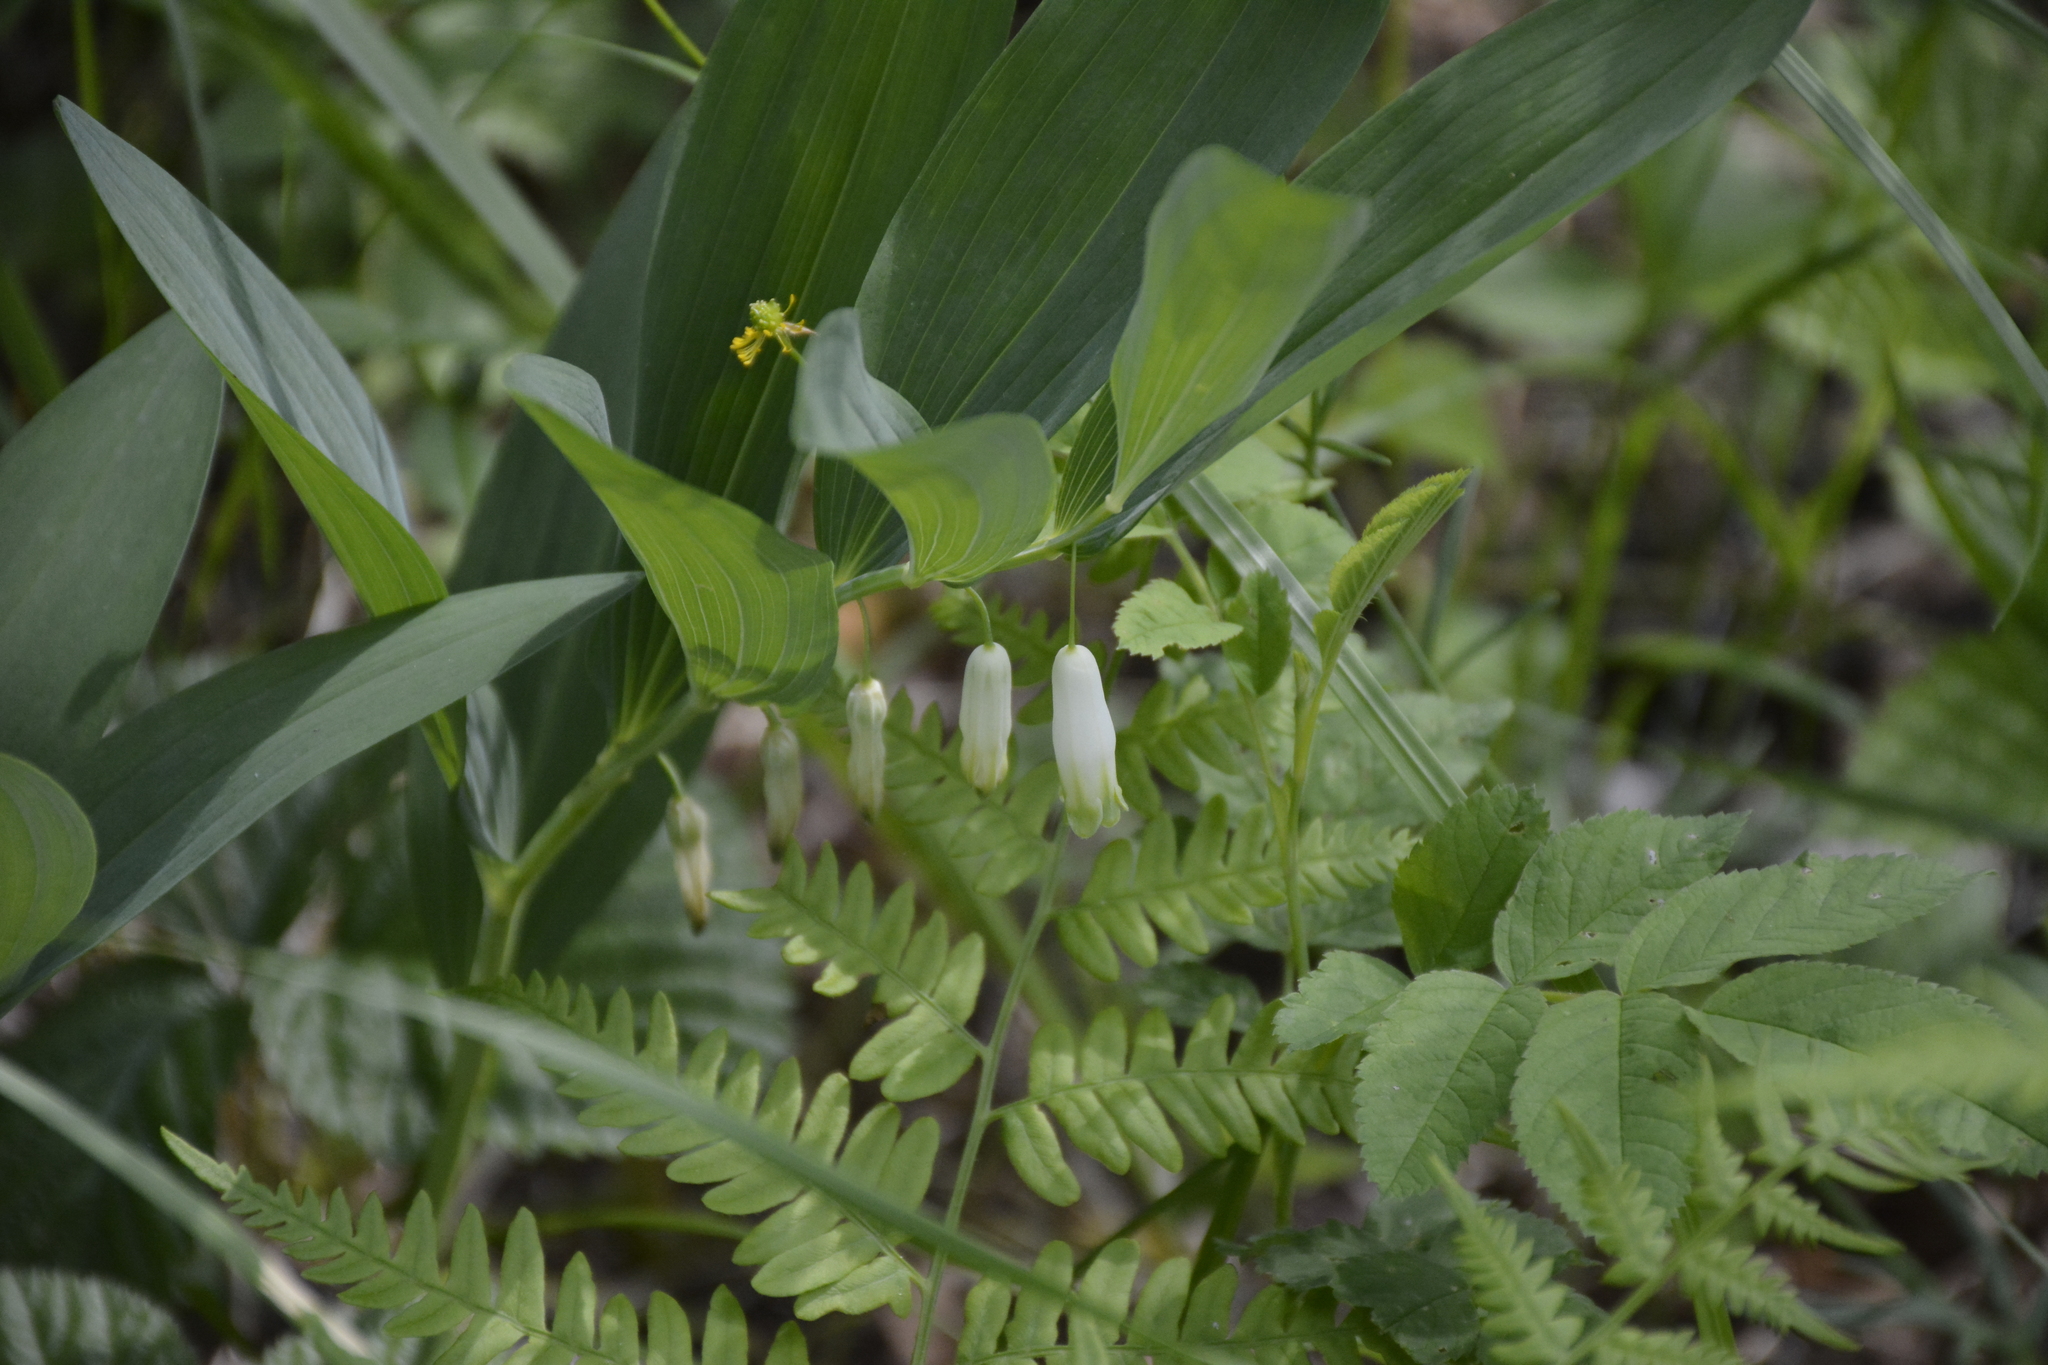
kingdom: Plantae
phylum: Tracheophyta
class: Liliopsida
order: Asparagales
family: Asparagaceae
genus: Polygonatum
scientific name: Polygonatum odoratum
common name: Angular solomon's-seal
